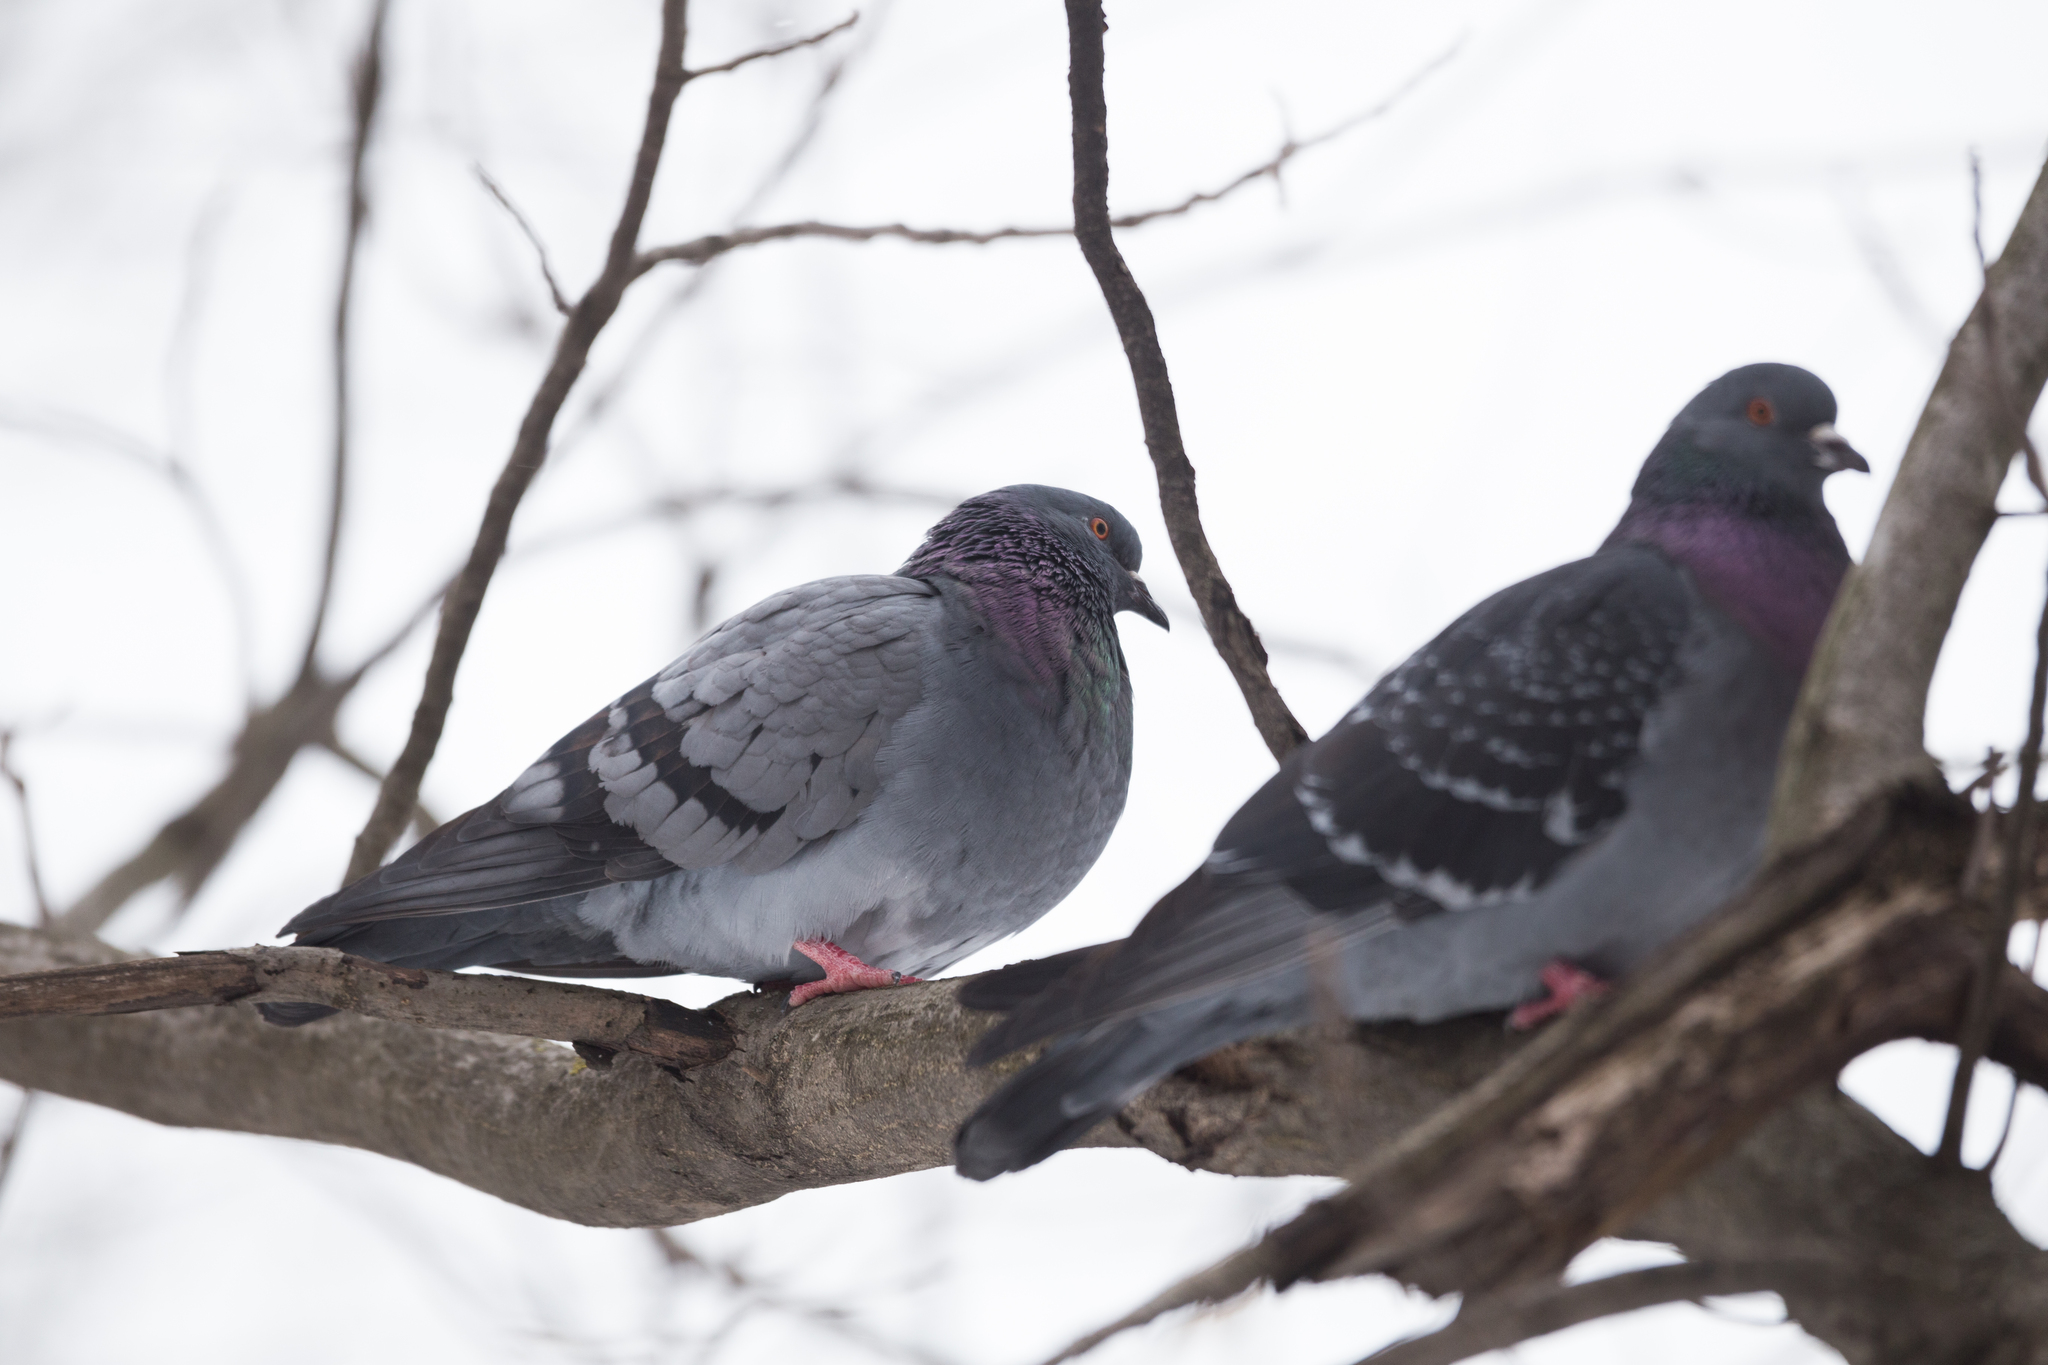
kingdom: Animalia
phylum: Chordata
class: Aves
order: Columbiformes
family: Columbidae
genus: Columba
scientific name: Columba livia
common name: Rock pigeon
